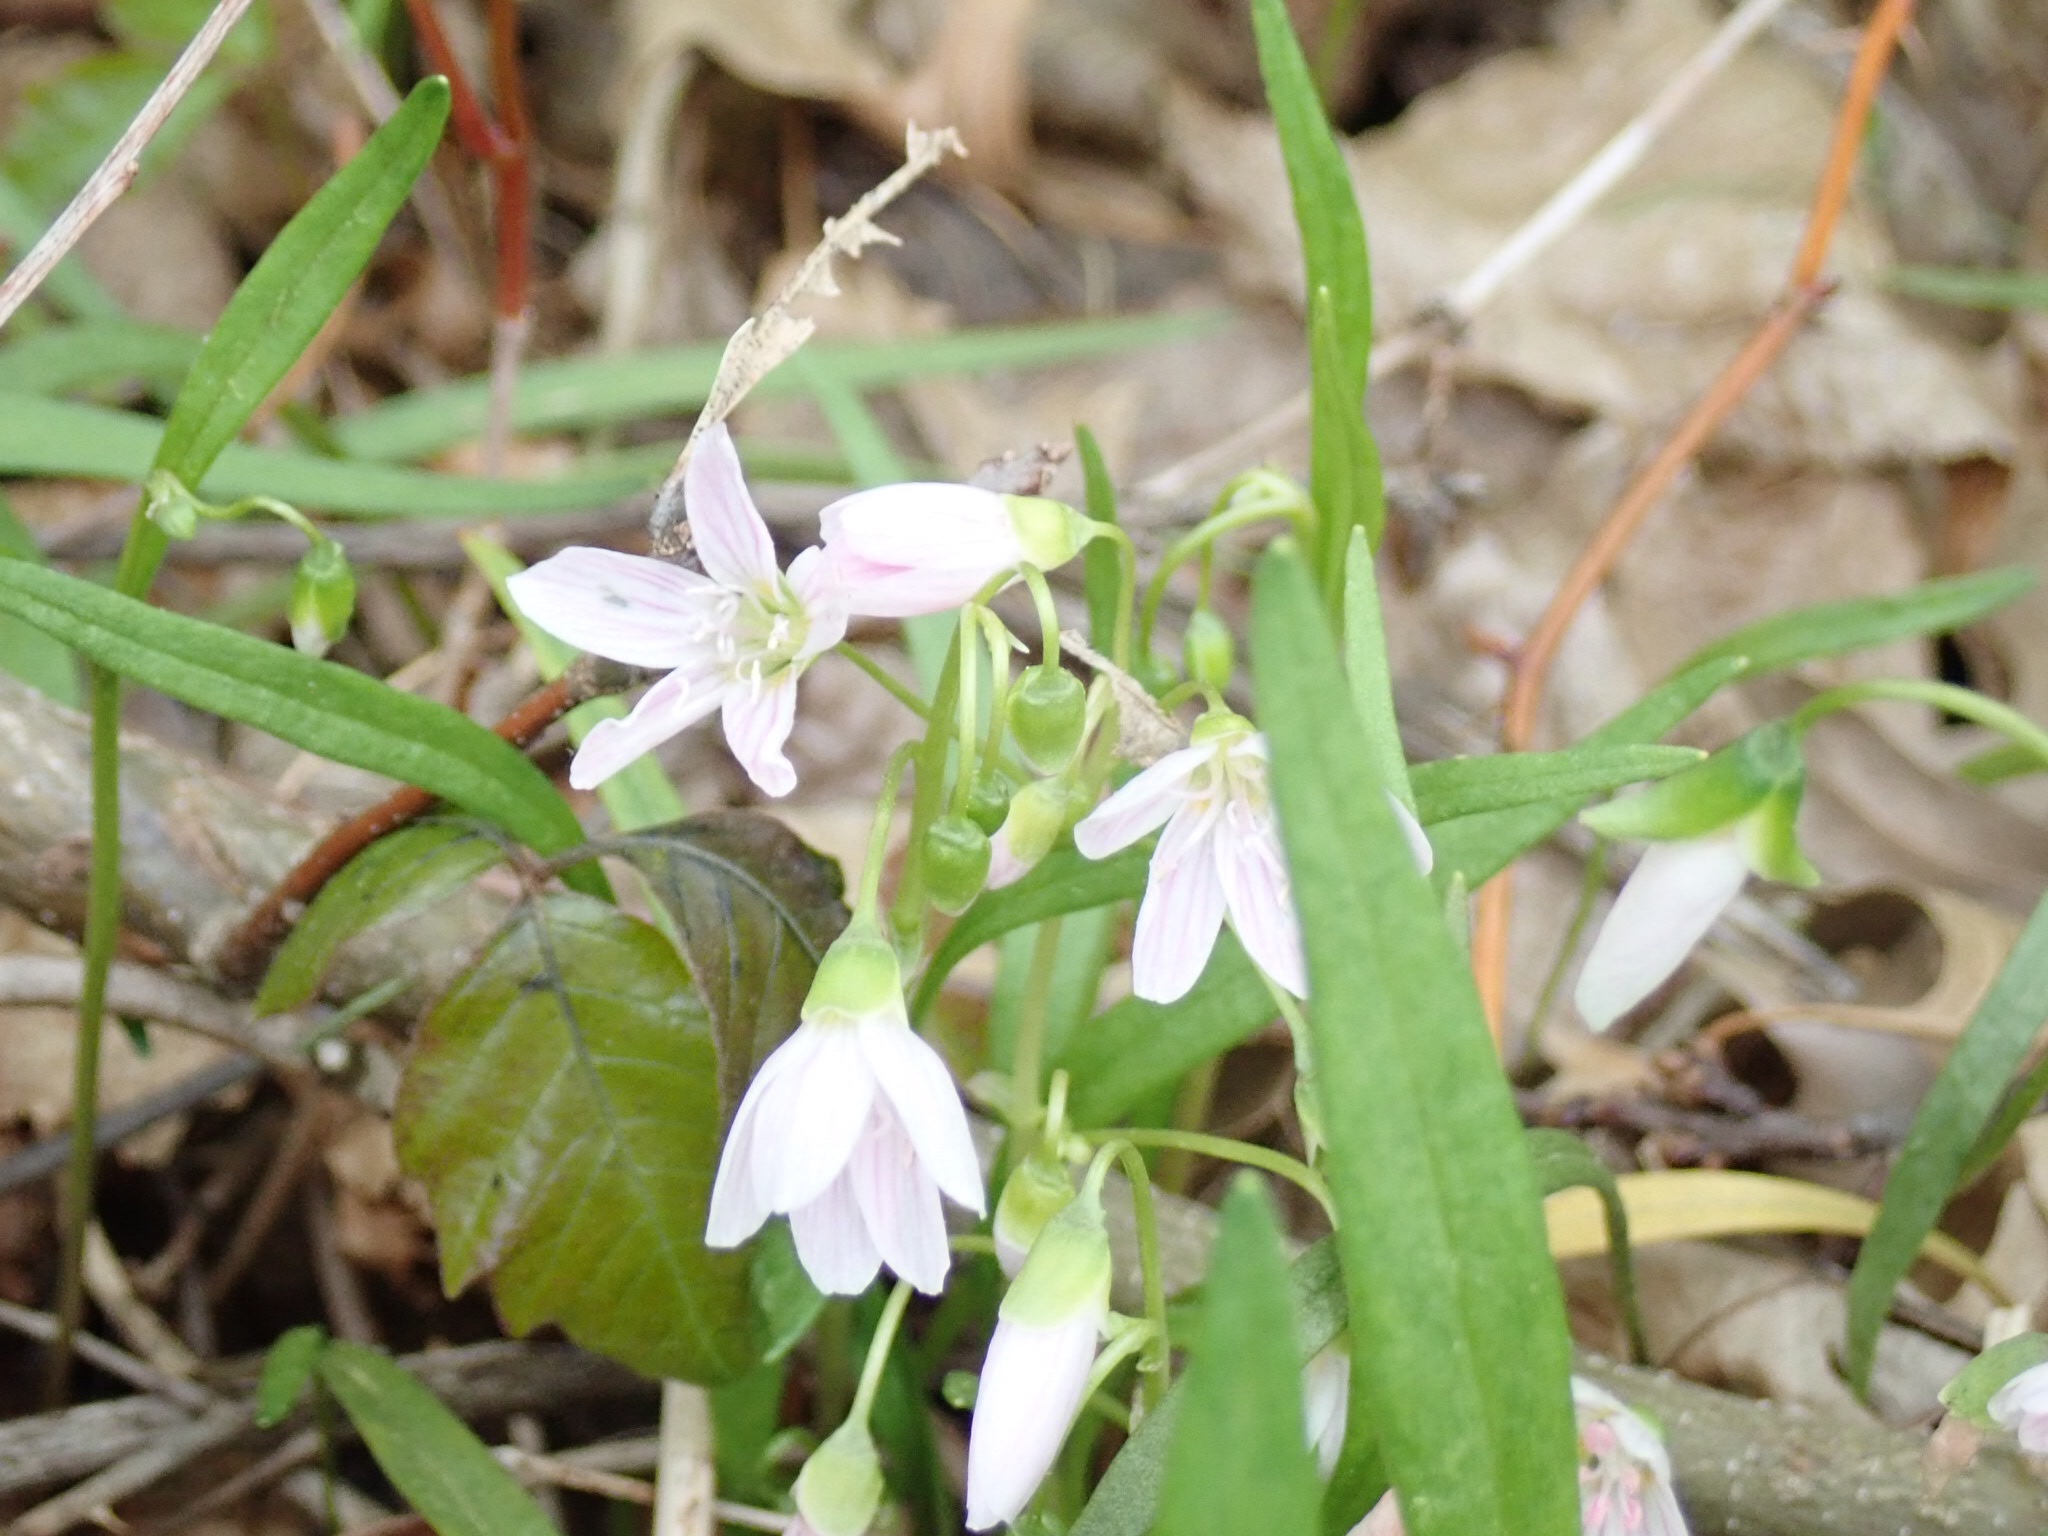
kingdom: Plantae
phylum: Tracheophyta
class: Magnoliopsida
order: Caryophyllales
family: Montiaceae
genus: Claytonia
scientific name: Claytonia virginica
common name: Virginia springbeauty
